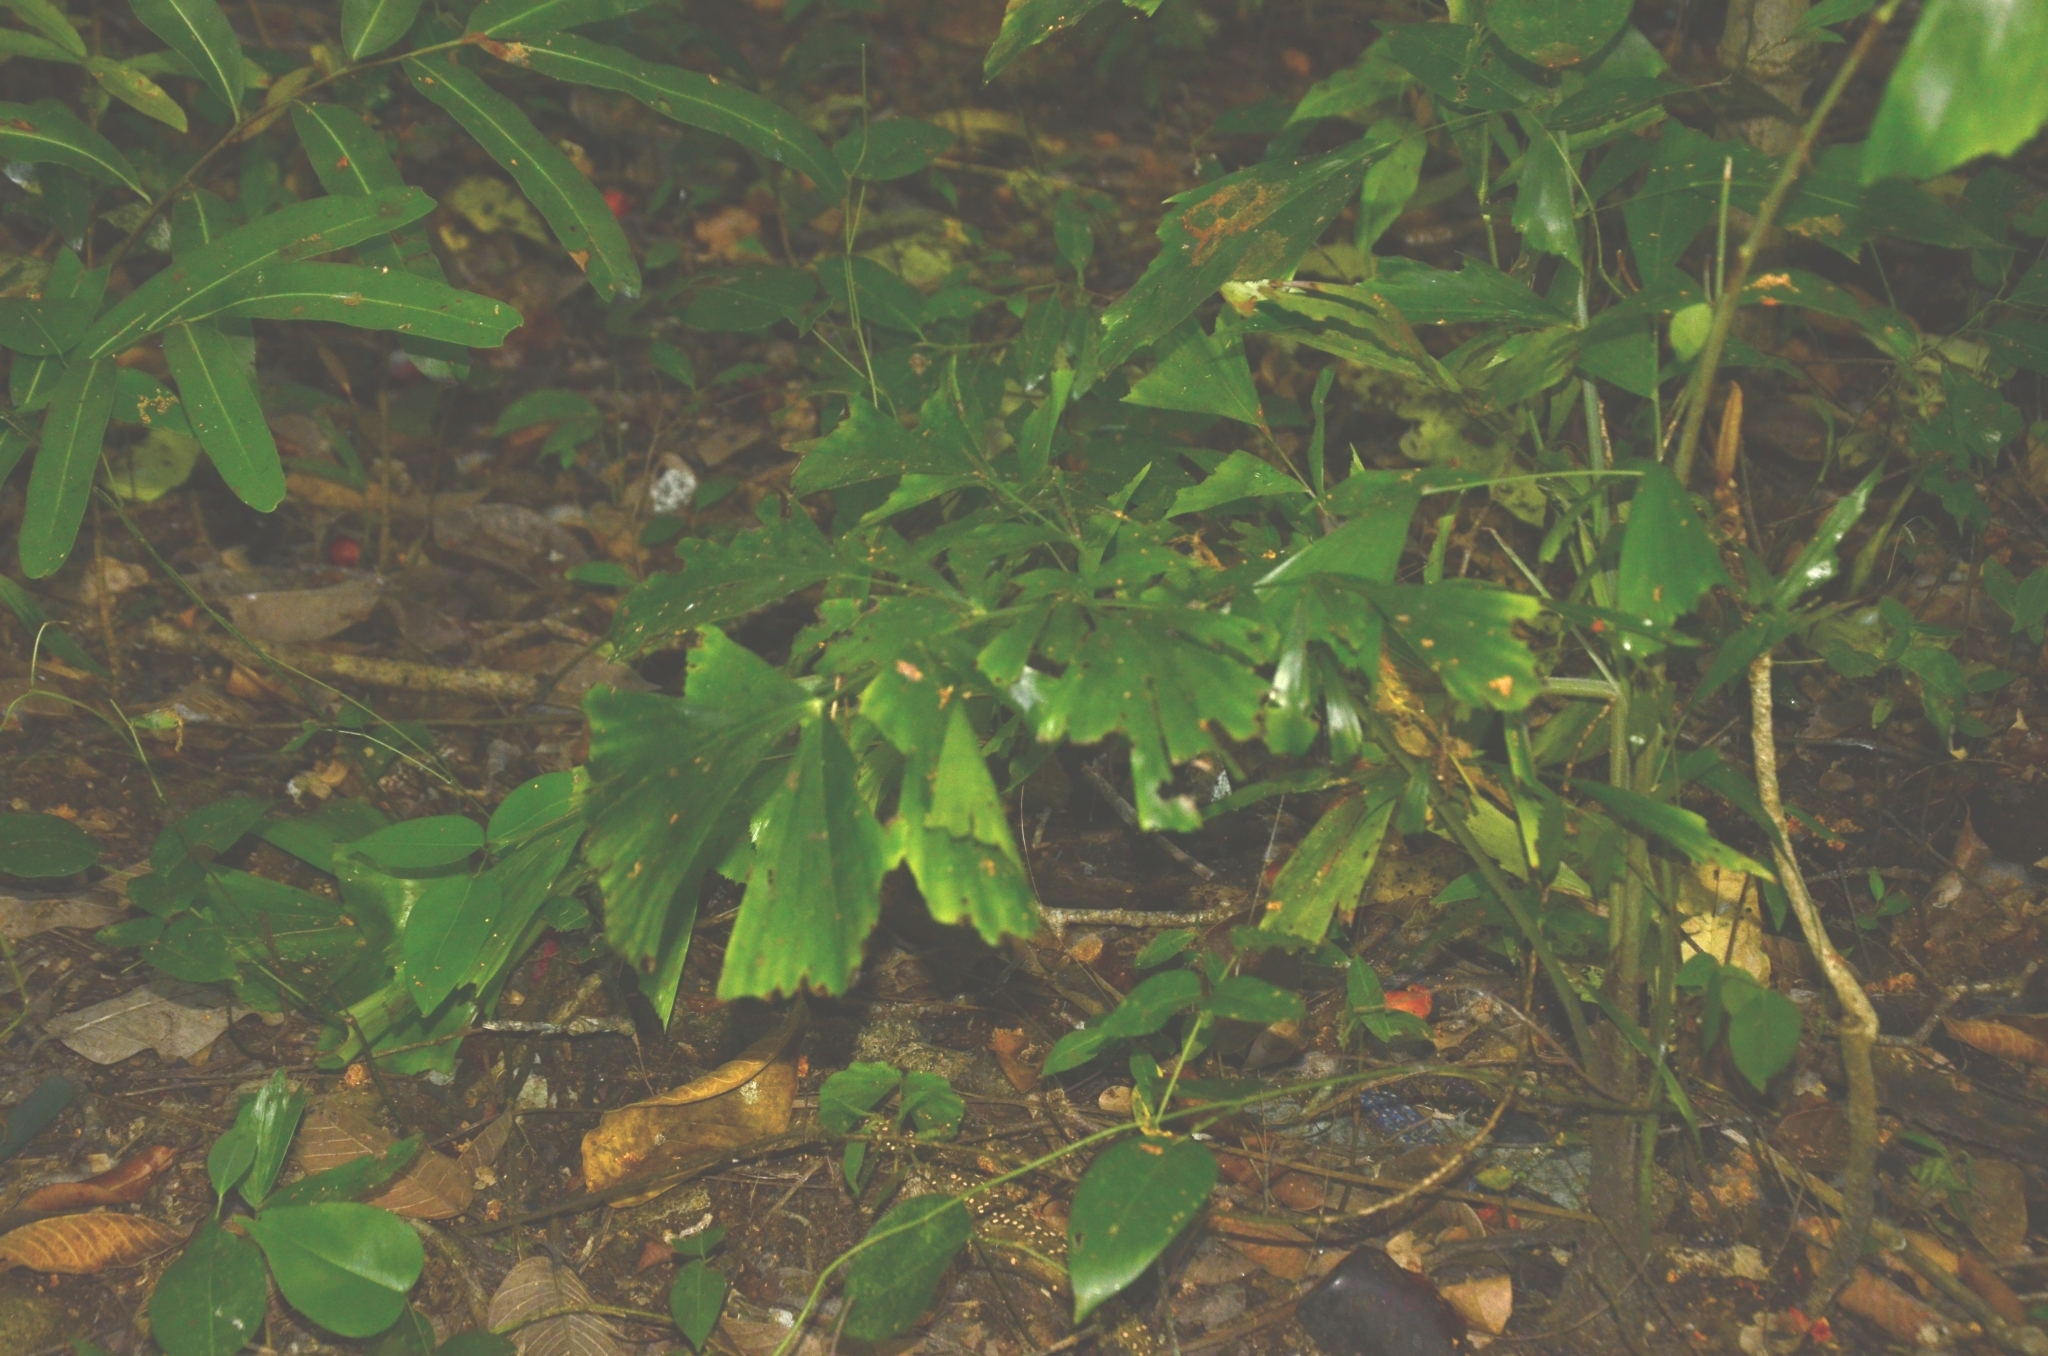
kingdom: Plantae
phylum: Tracheophyta
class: Liliopsida
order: Arecales
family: Arecaceae
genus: Caryota
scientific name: Caryota urens
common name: Jaggery palm
